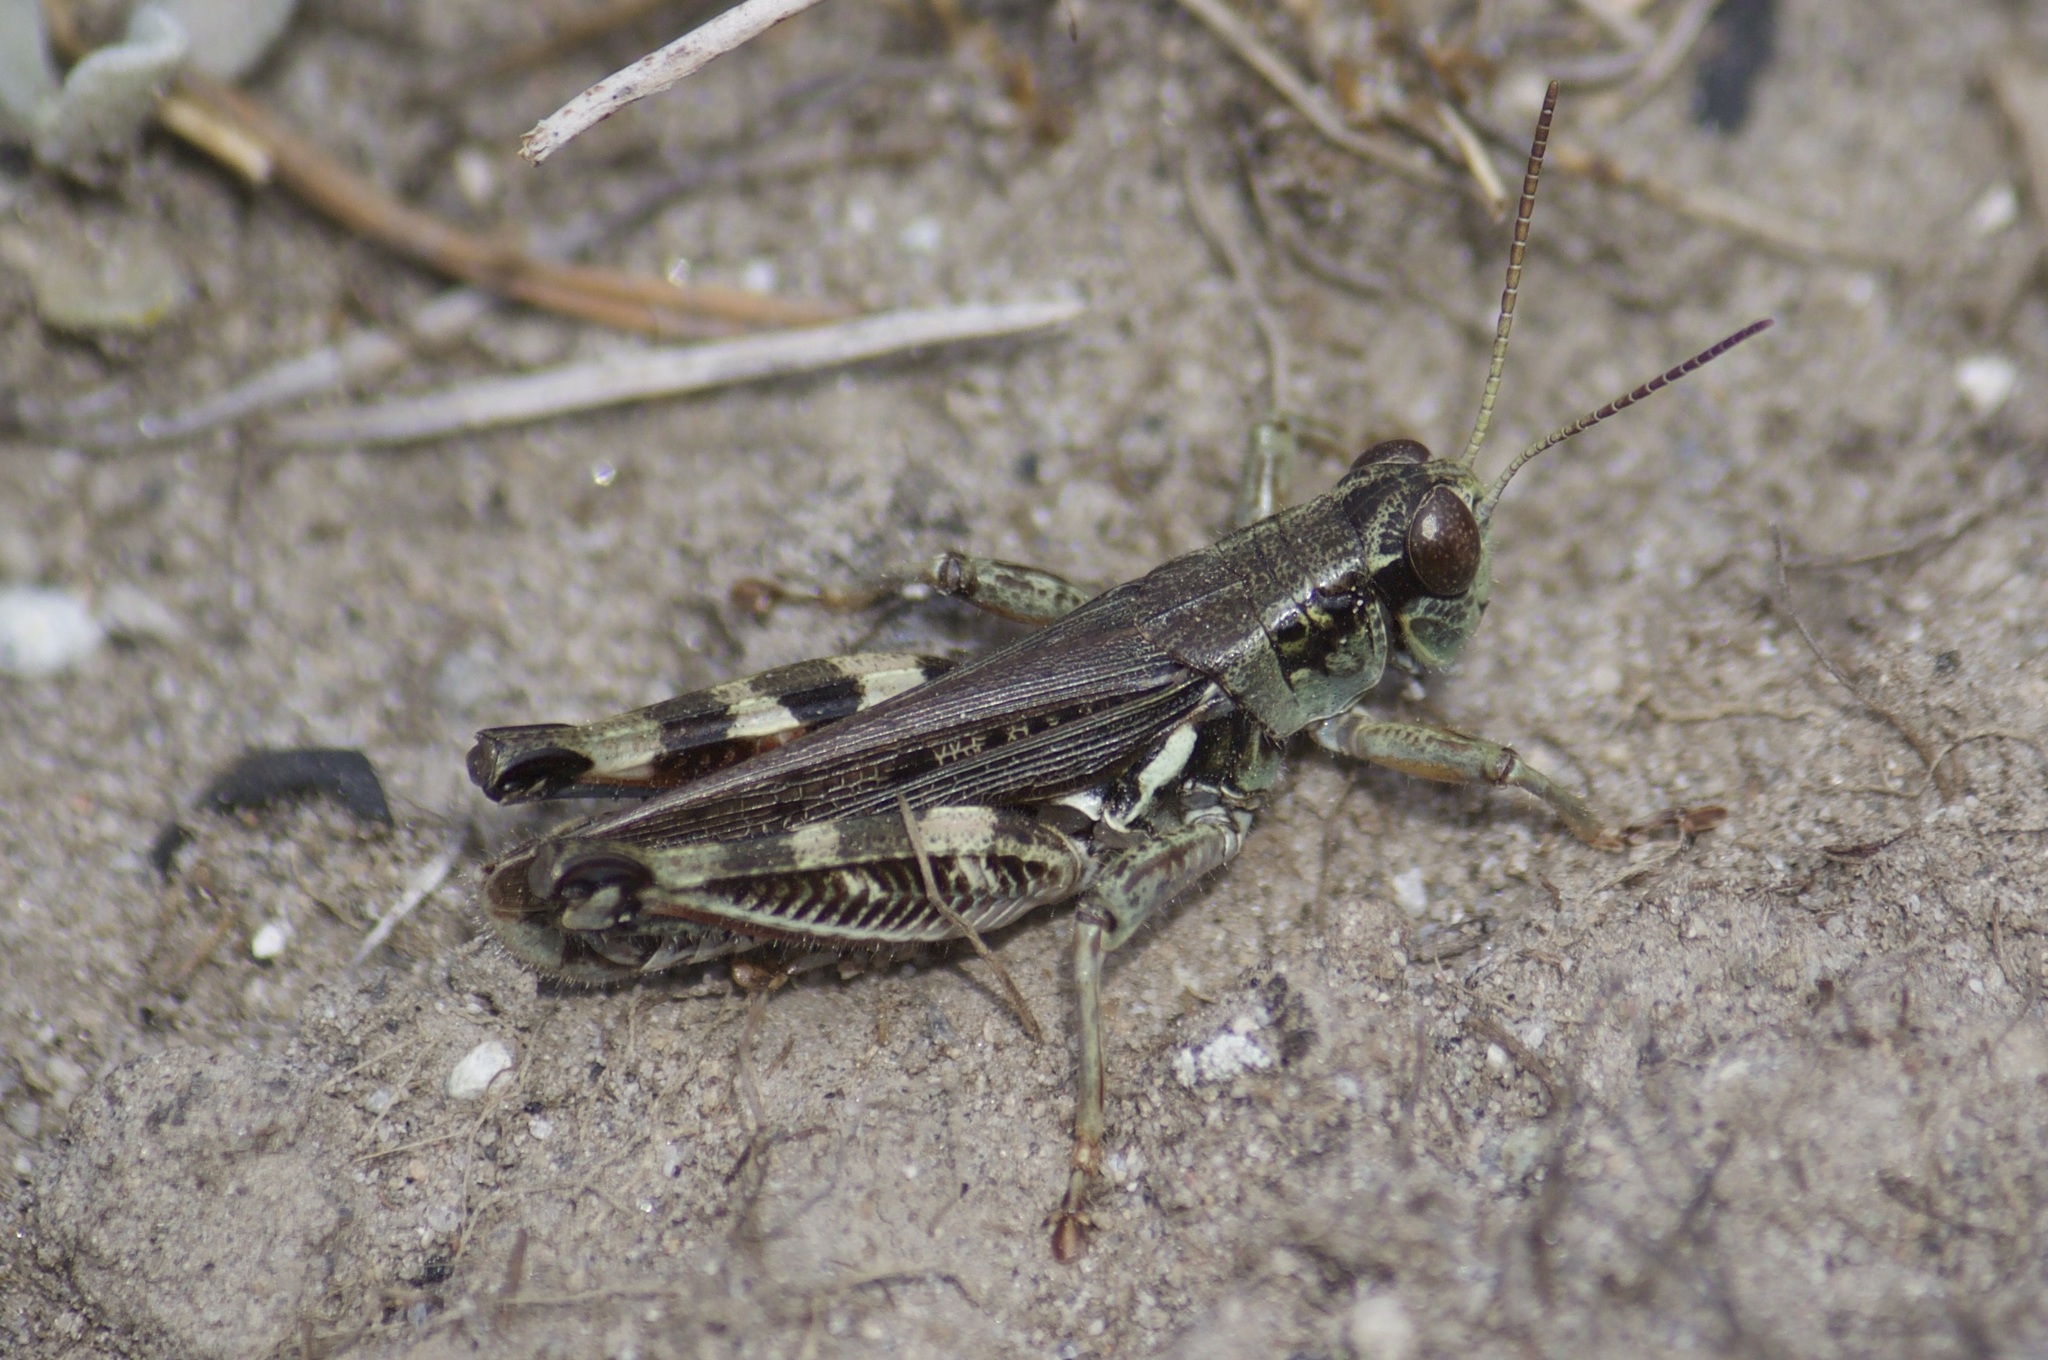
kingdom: Animalia
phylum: Arthropoda
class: Insecta
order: Orthoptera
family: Acrididae
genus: Melanoplus
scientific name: Melanoplus complanatipes
